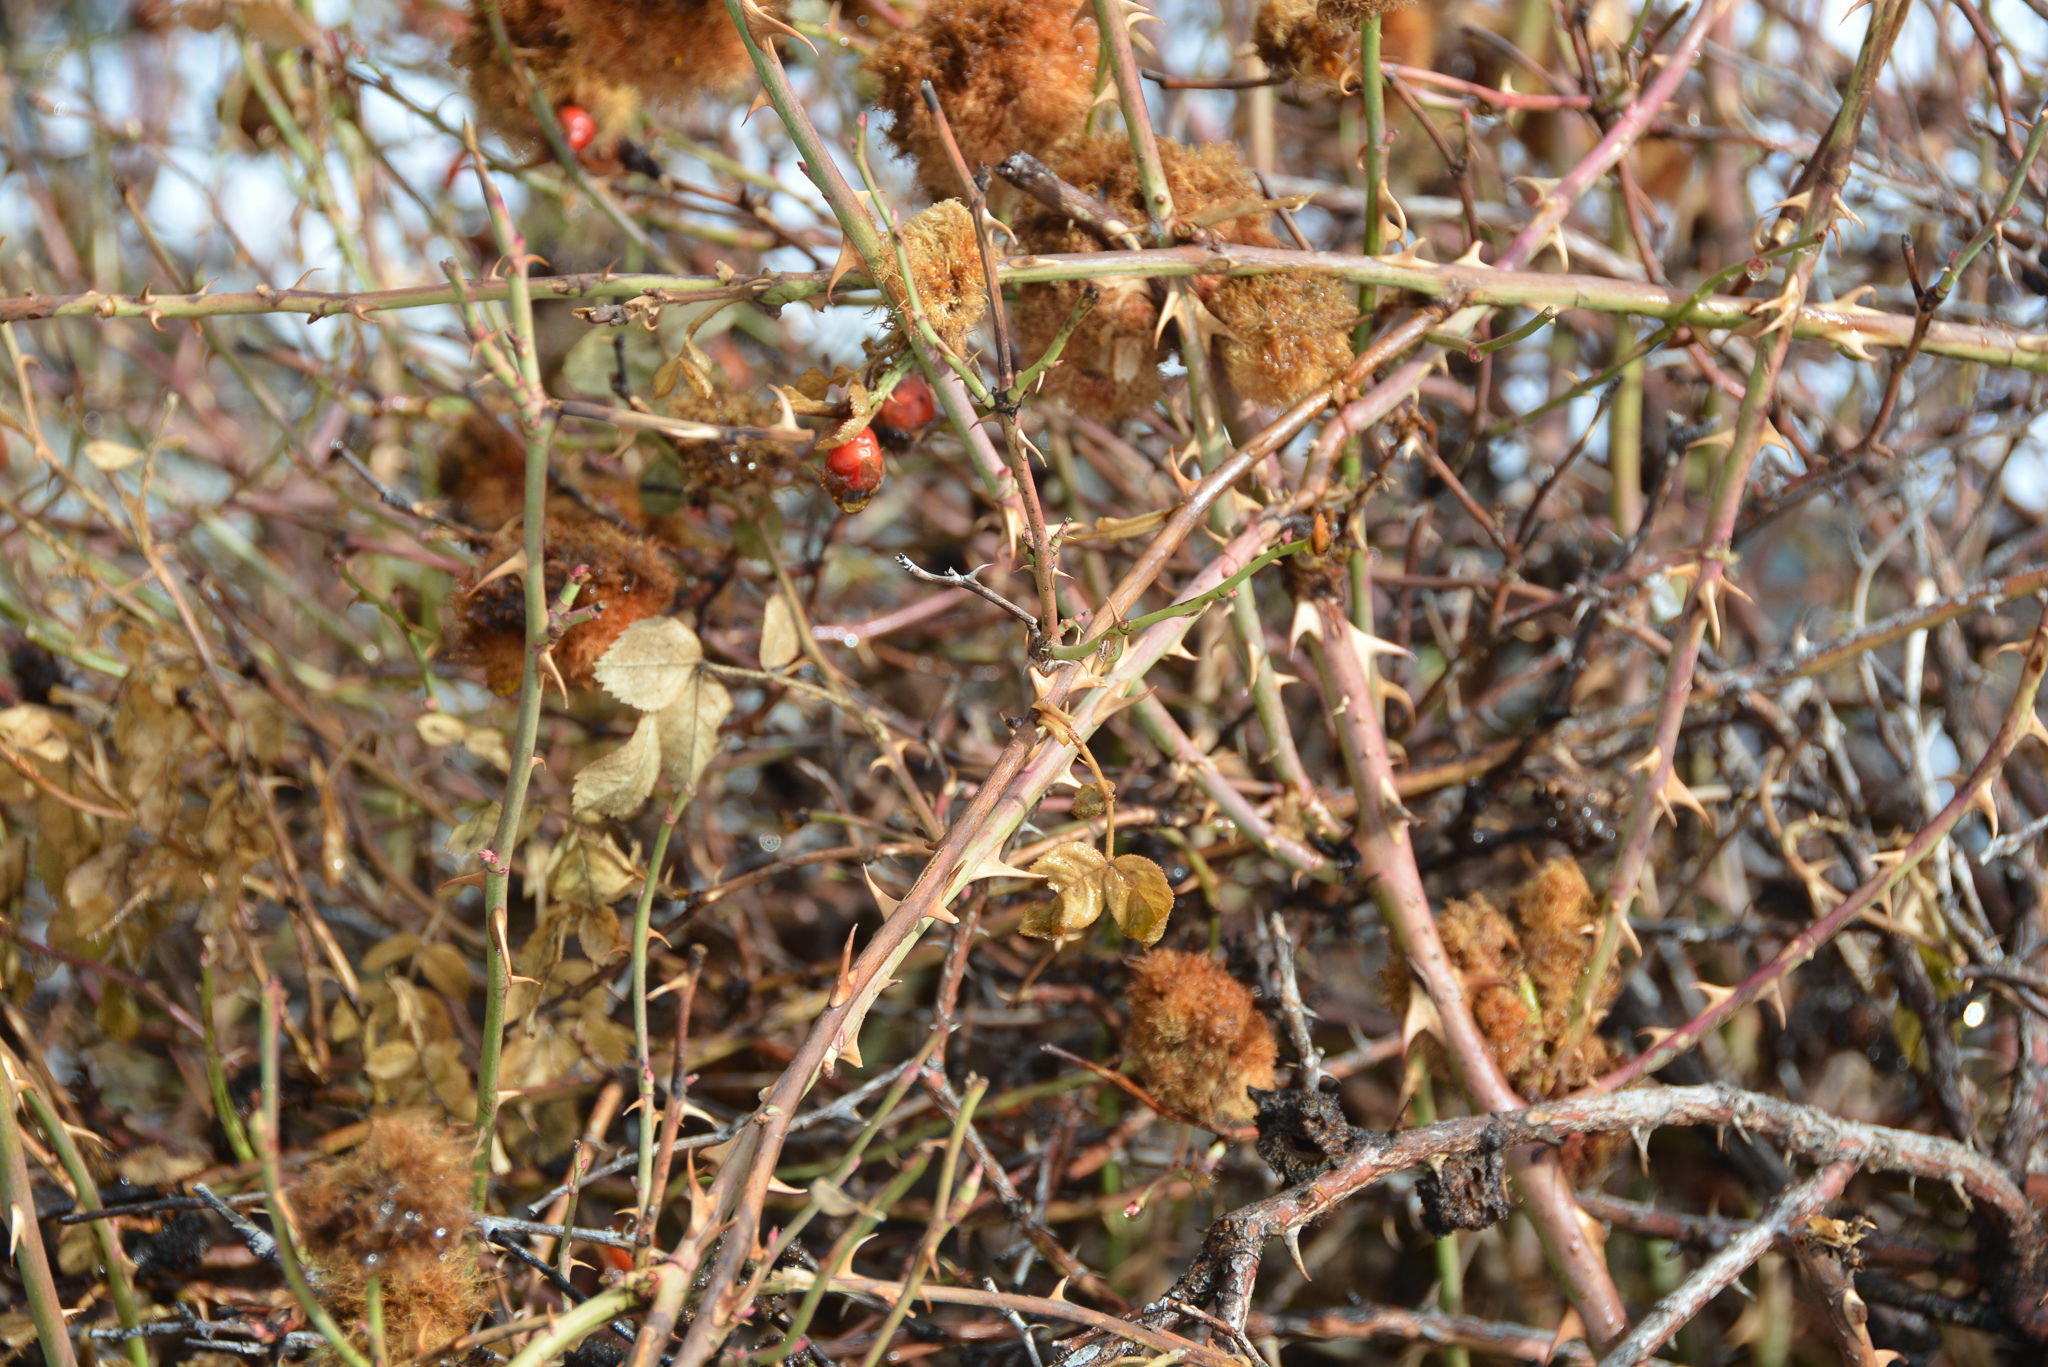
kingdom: Animalia
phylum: Arthropoda
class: Insecta
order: Hymenoptera
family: Cynipidae
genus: Diplolepis
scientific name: Diplolepis rosae
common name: Bedeguar gall
